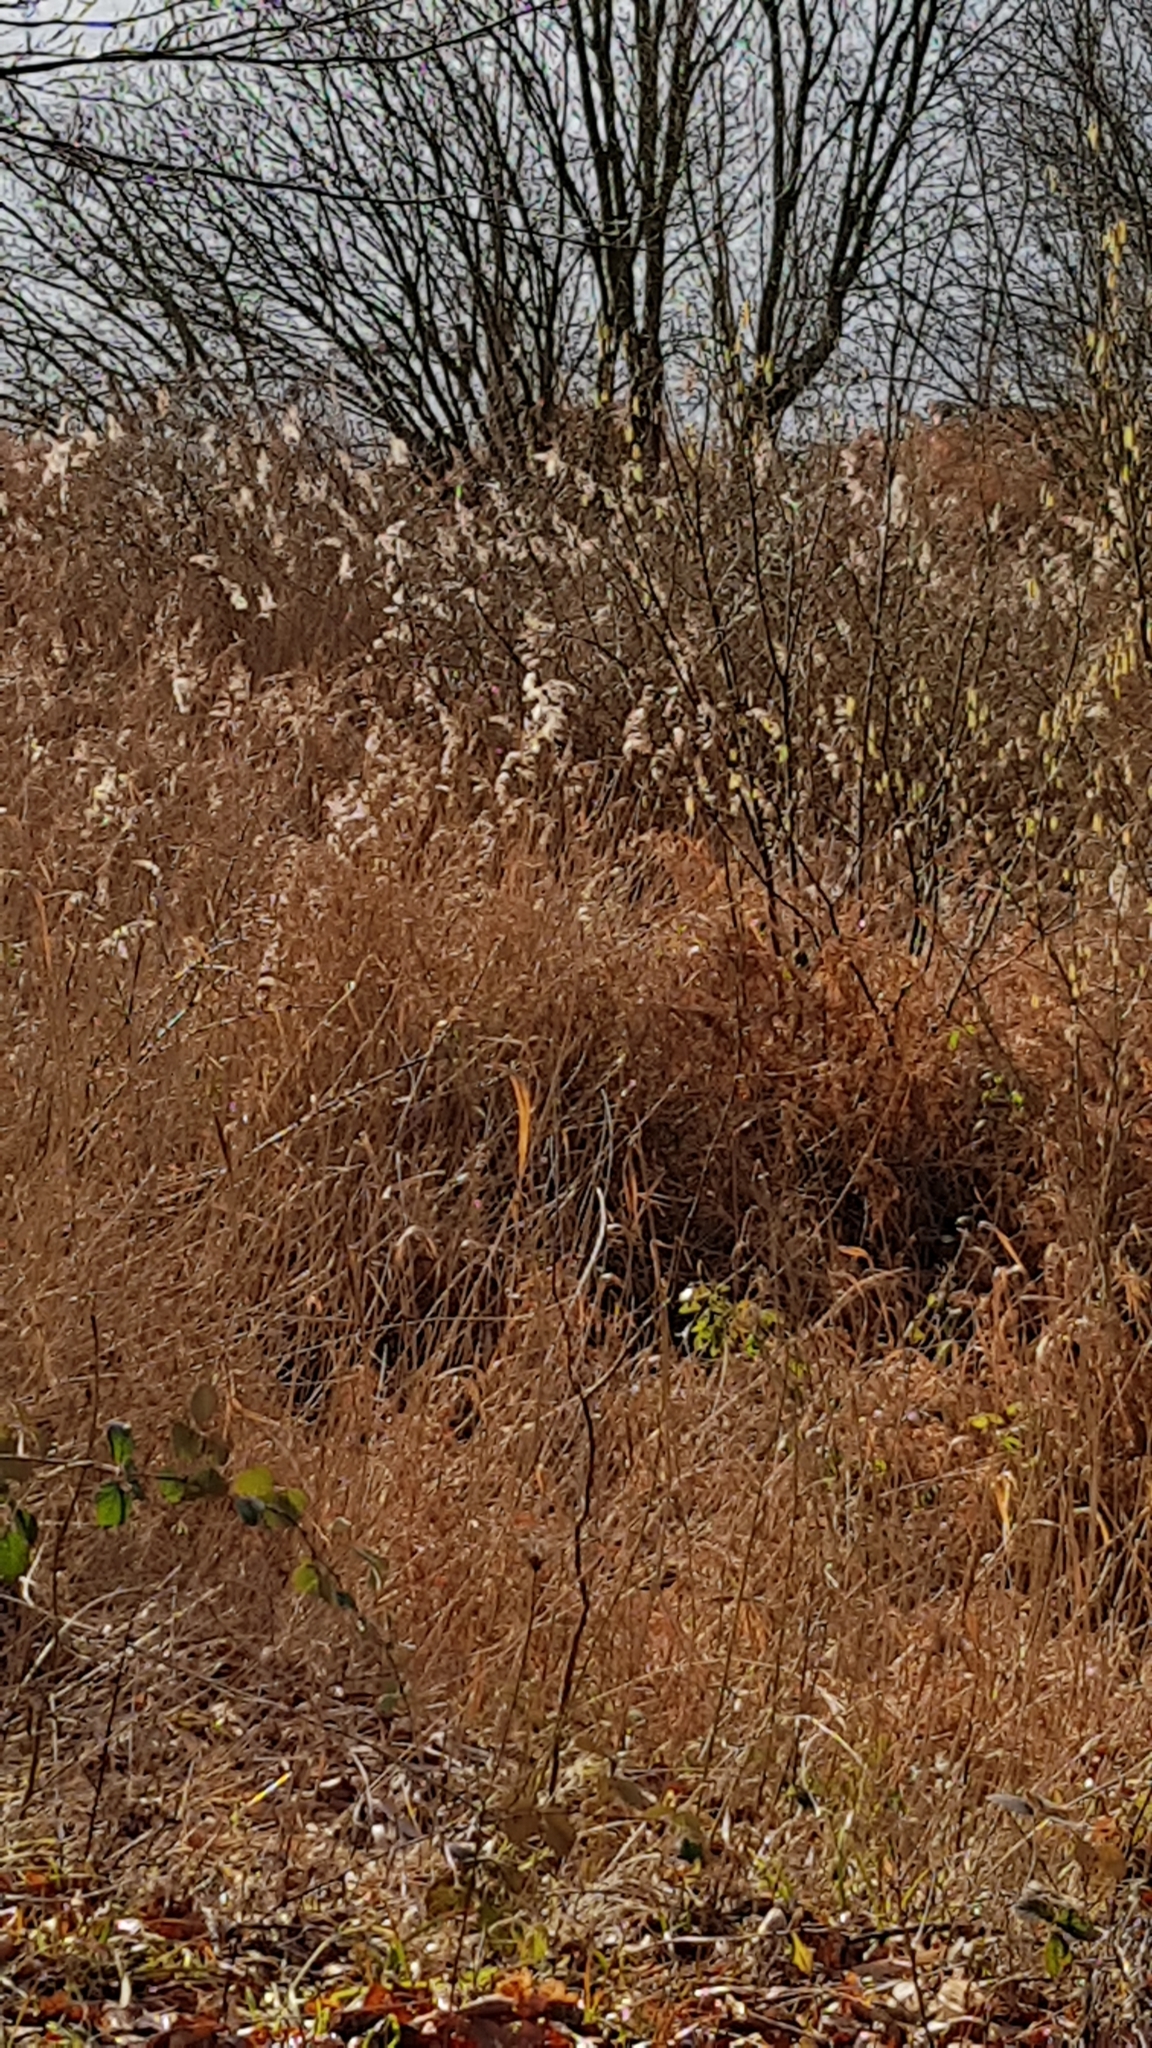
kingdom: Plantae
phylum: Tracheophyta
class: Liliopsida
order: Poales
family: Poaceae
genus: Phragmites
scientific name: Phragmites australis
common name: Common reed
